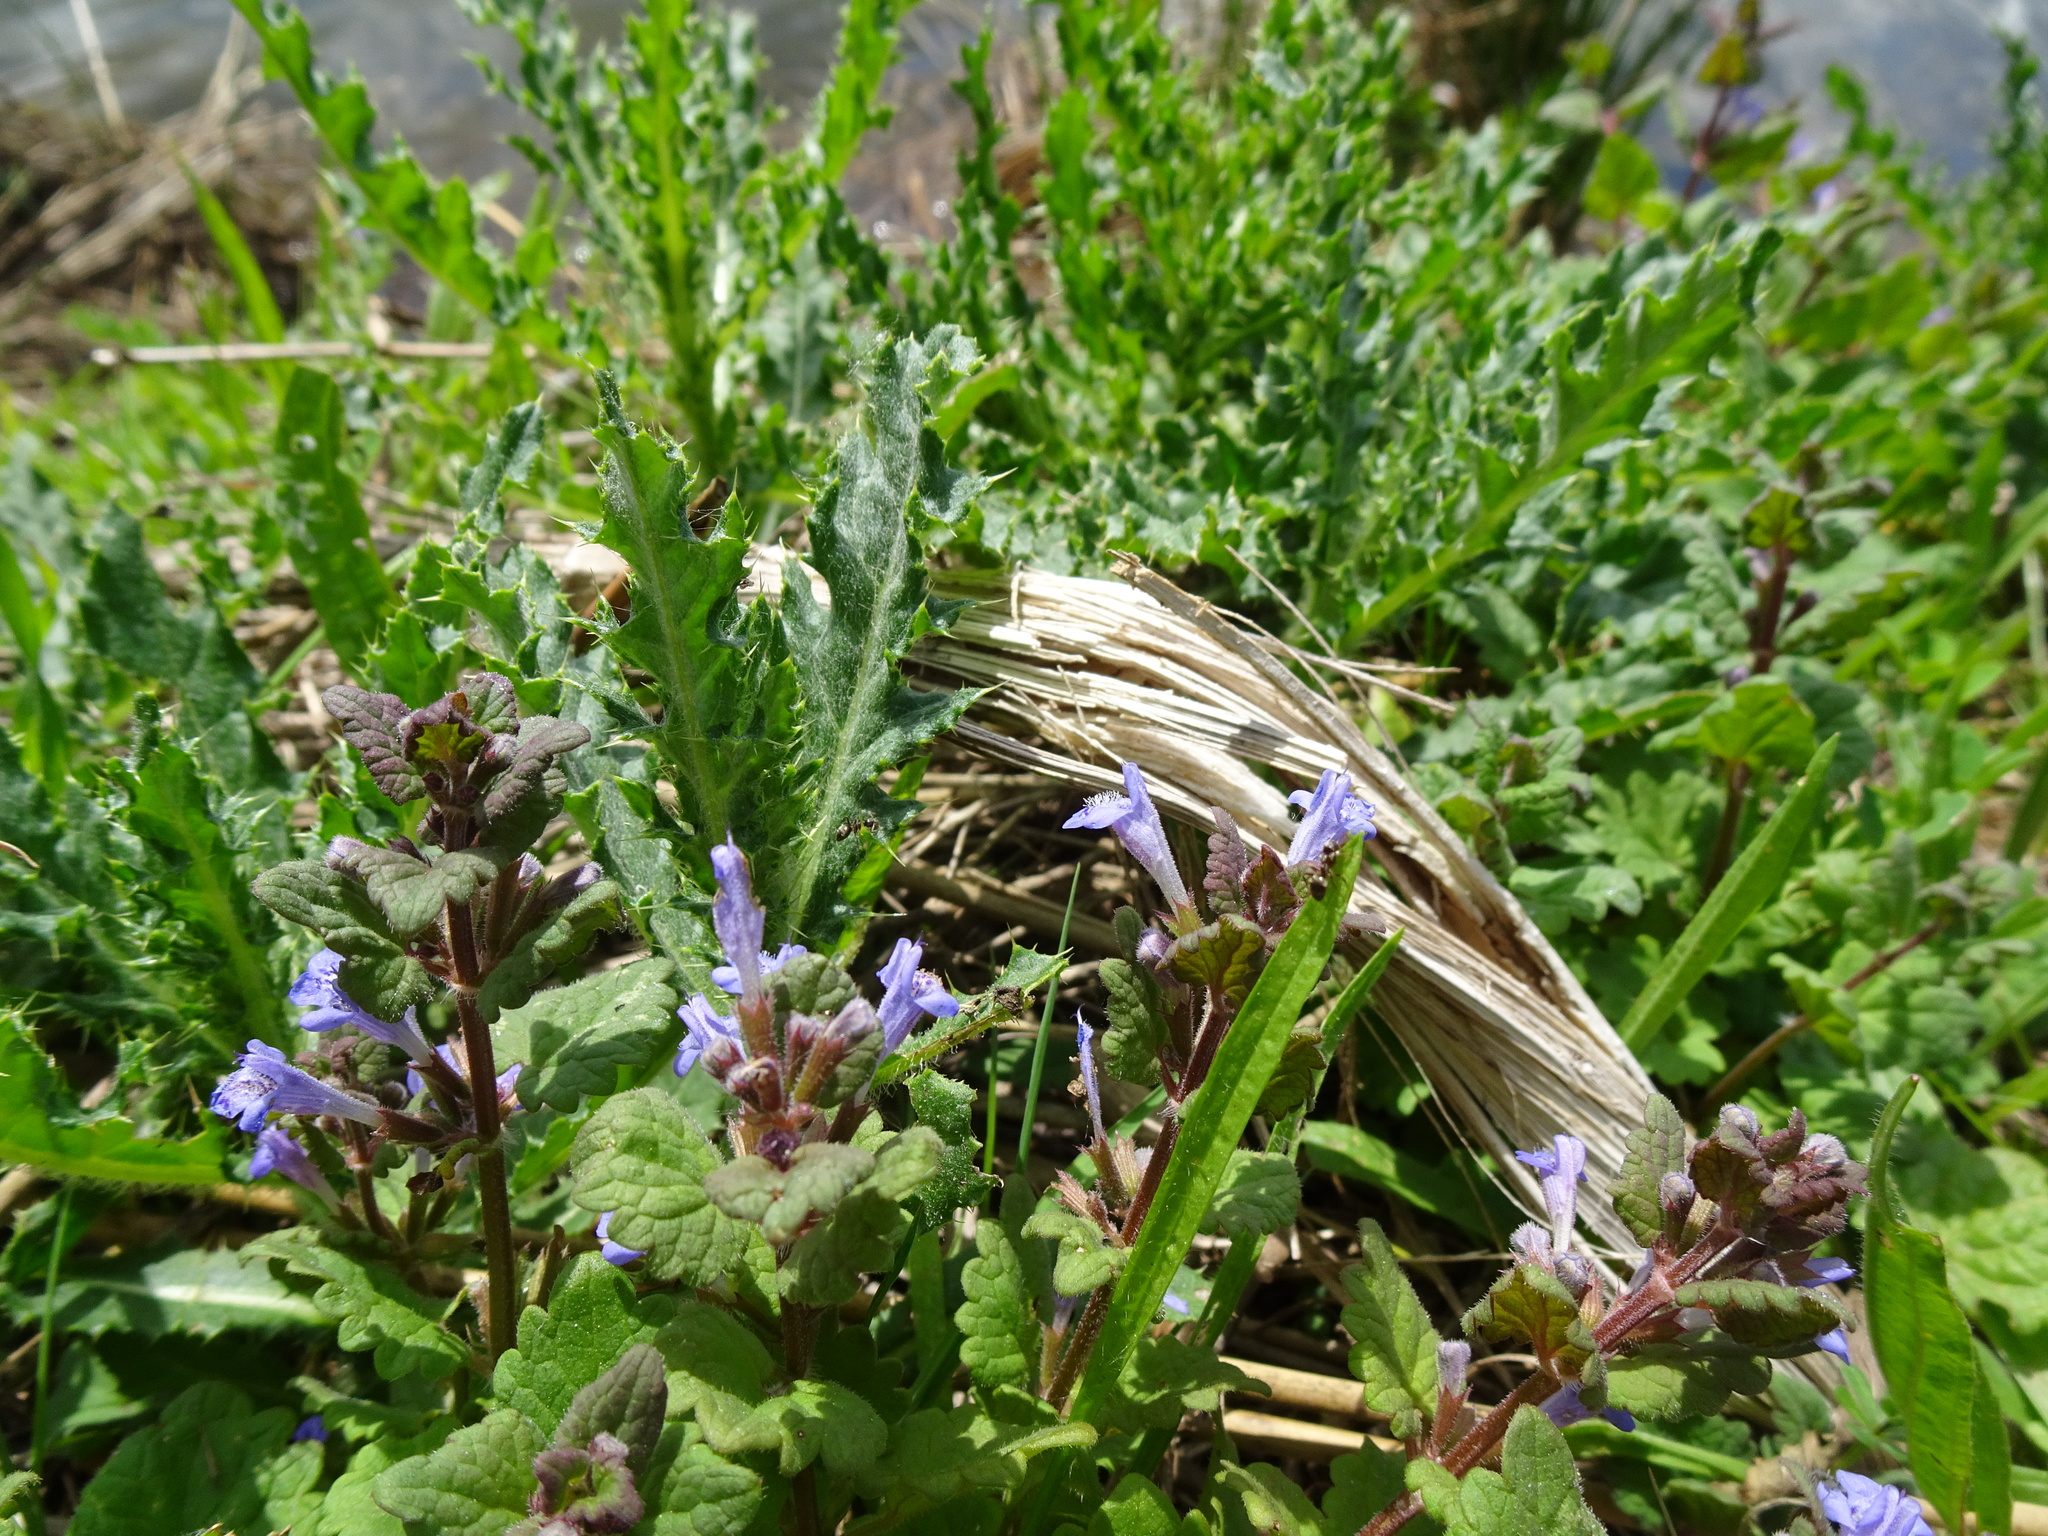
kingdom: Plantae
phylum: Tracheophyta
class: Magnoliopsida
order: Lamiales
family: Lamiaceae
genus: Glechoma
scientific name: Glechoma hederacea
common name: Ground ivy
